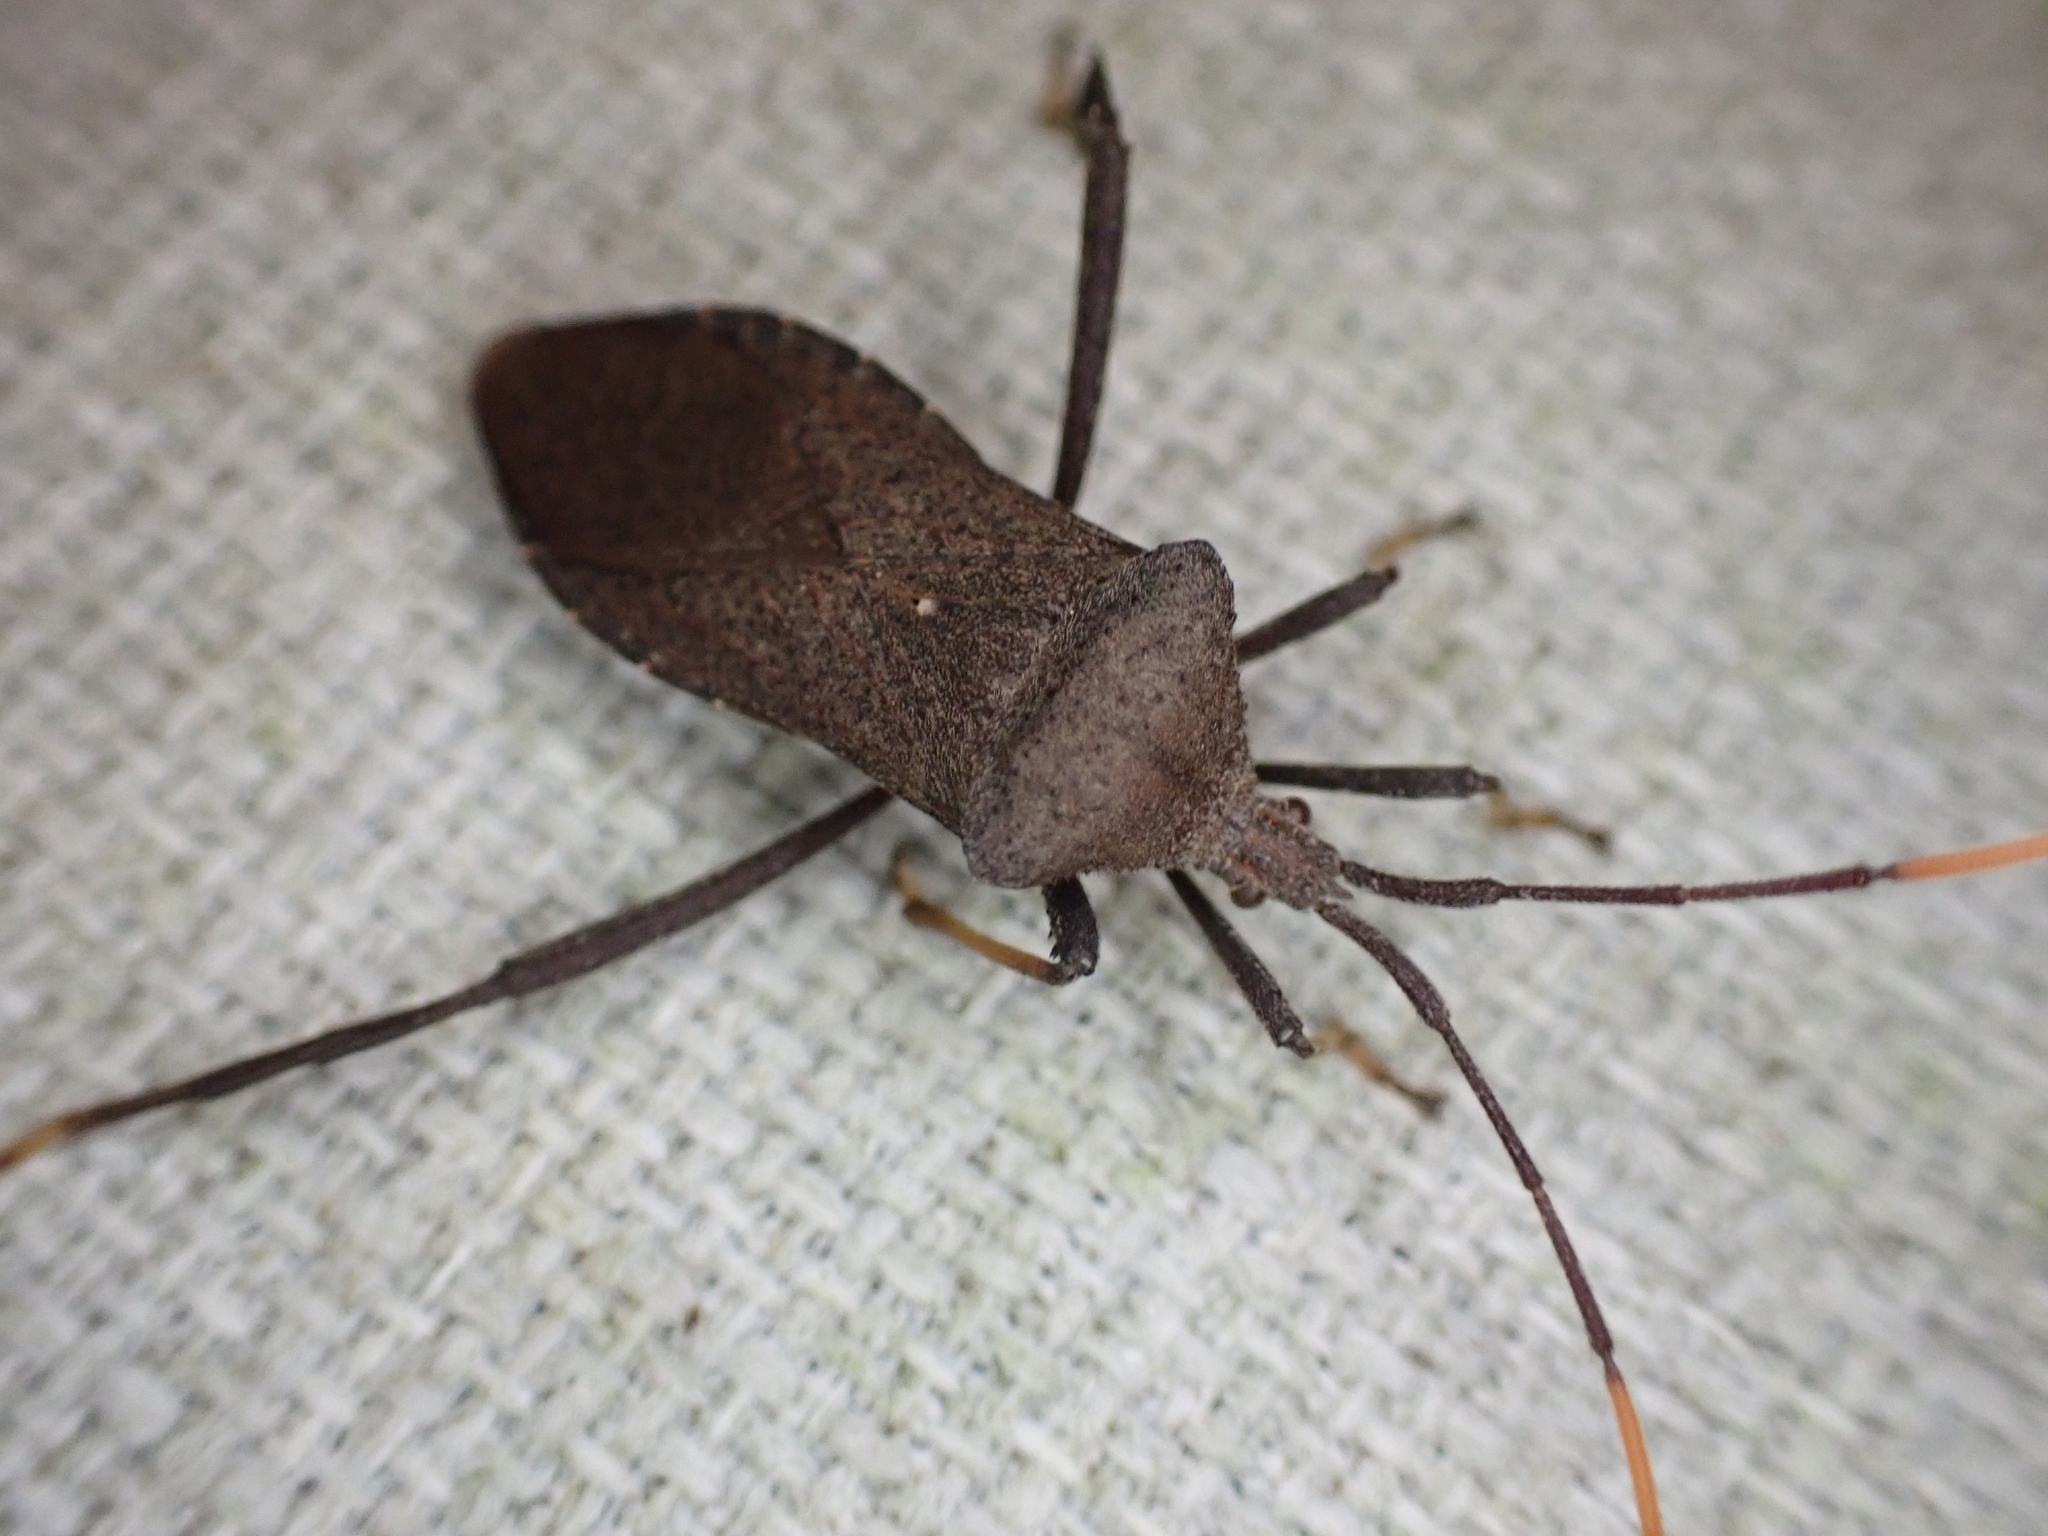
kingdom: Animalia
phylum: Arthropoda
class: Insecta
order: Hemiptera
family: Coreidae
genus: Acanthocephala
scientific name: Acanthocephala terminalis
